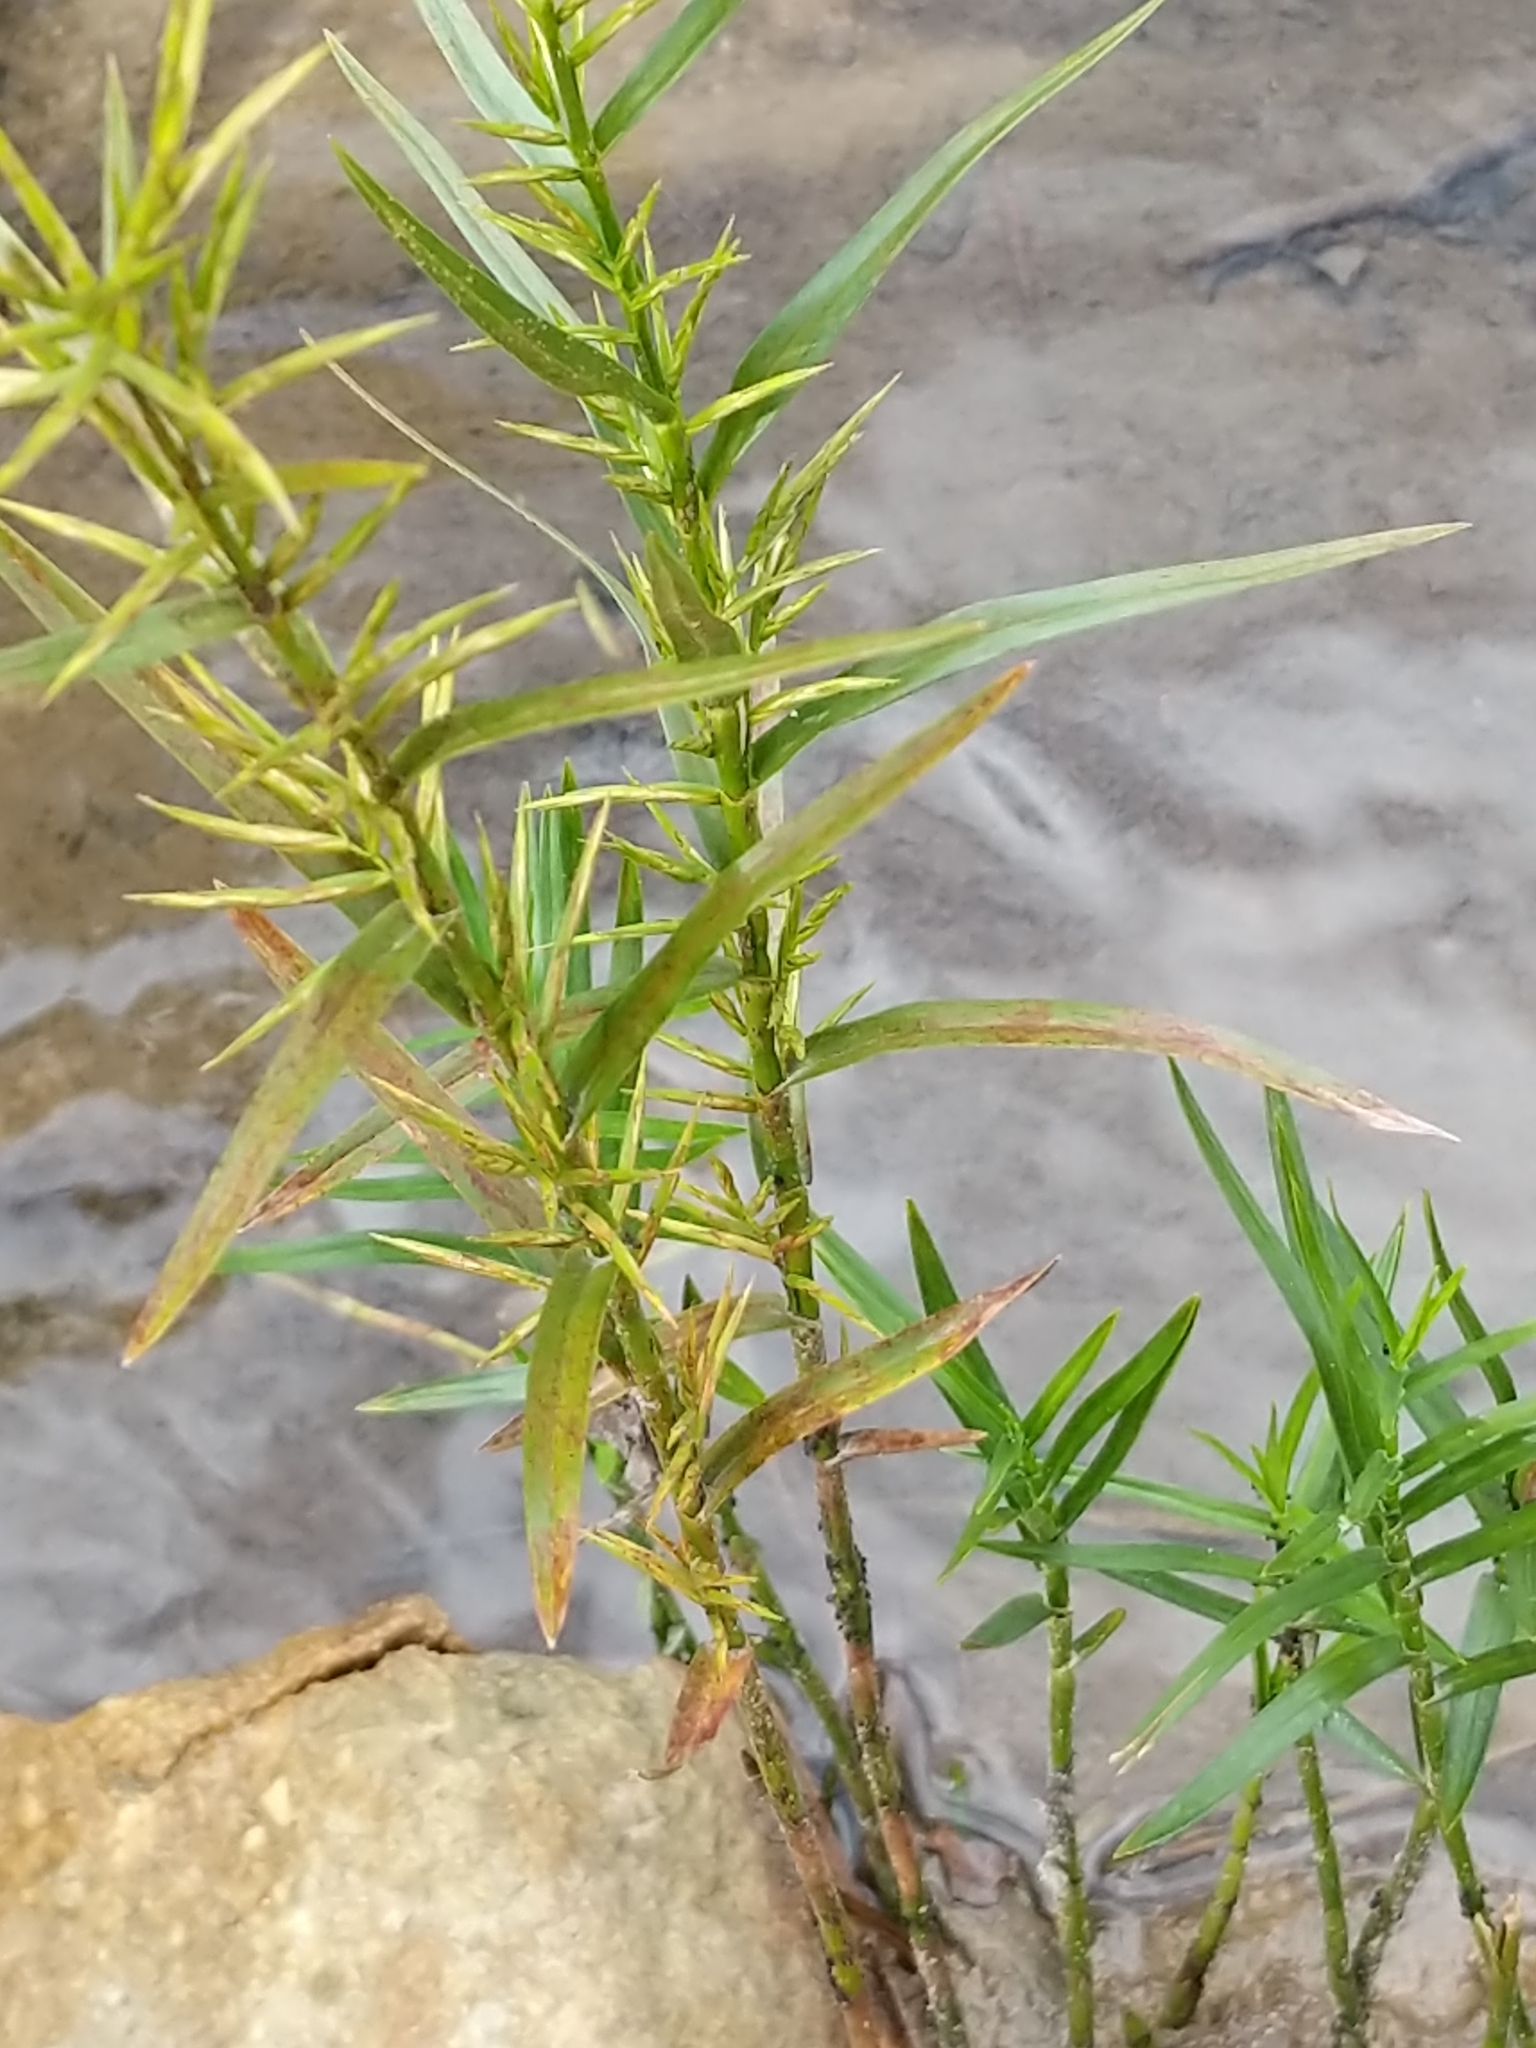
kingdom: Plantae
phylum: Tracheophyta
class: Liliopsida
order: Poales
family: Cyperaceae
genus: Dulichium
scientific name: Dulichium arundinaceum
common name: Three-way sedge
